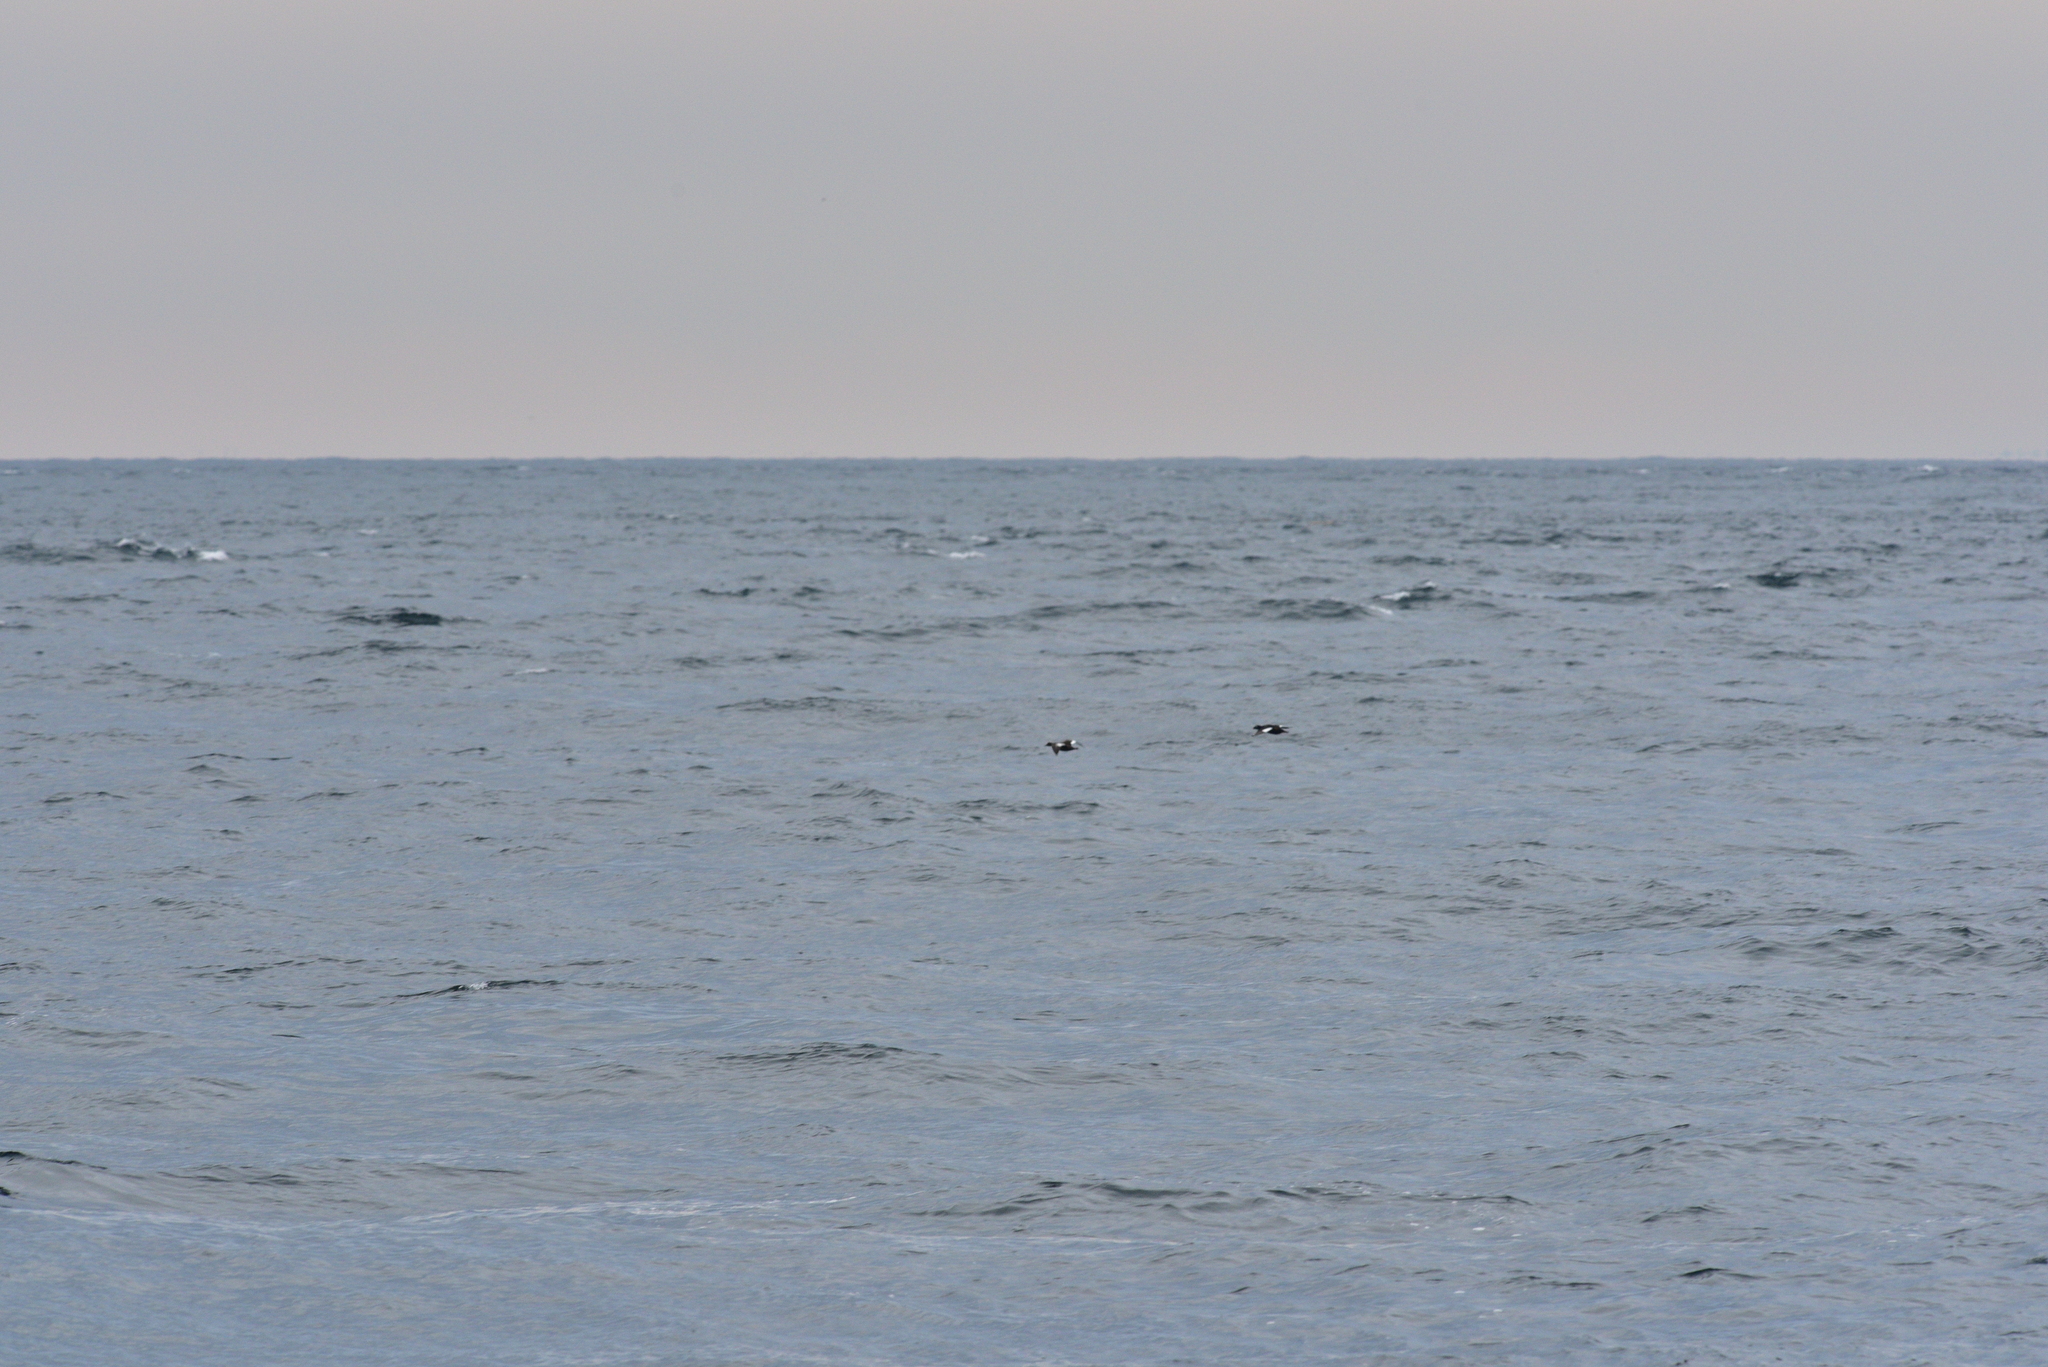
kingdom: Animalia
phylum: Chordata
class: Aves
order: Anseriformes
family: Anatidae
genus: Melanitta
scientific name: Melanitta deglandi
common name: White-winged scoter
